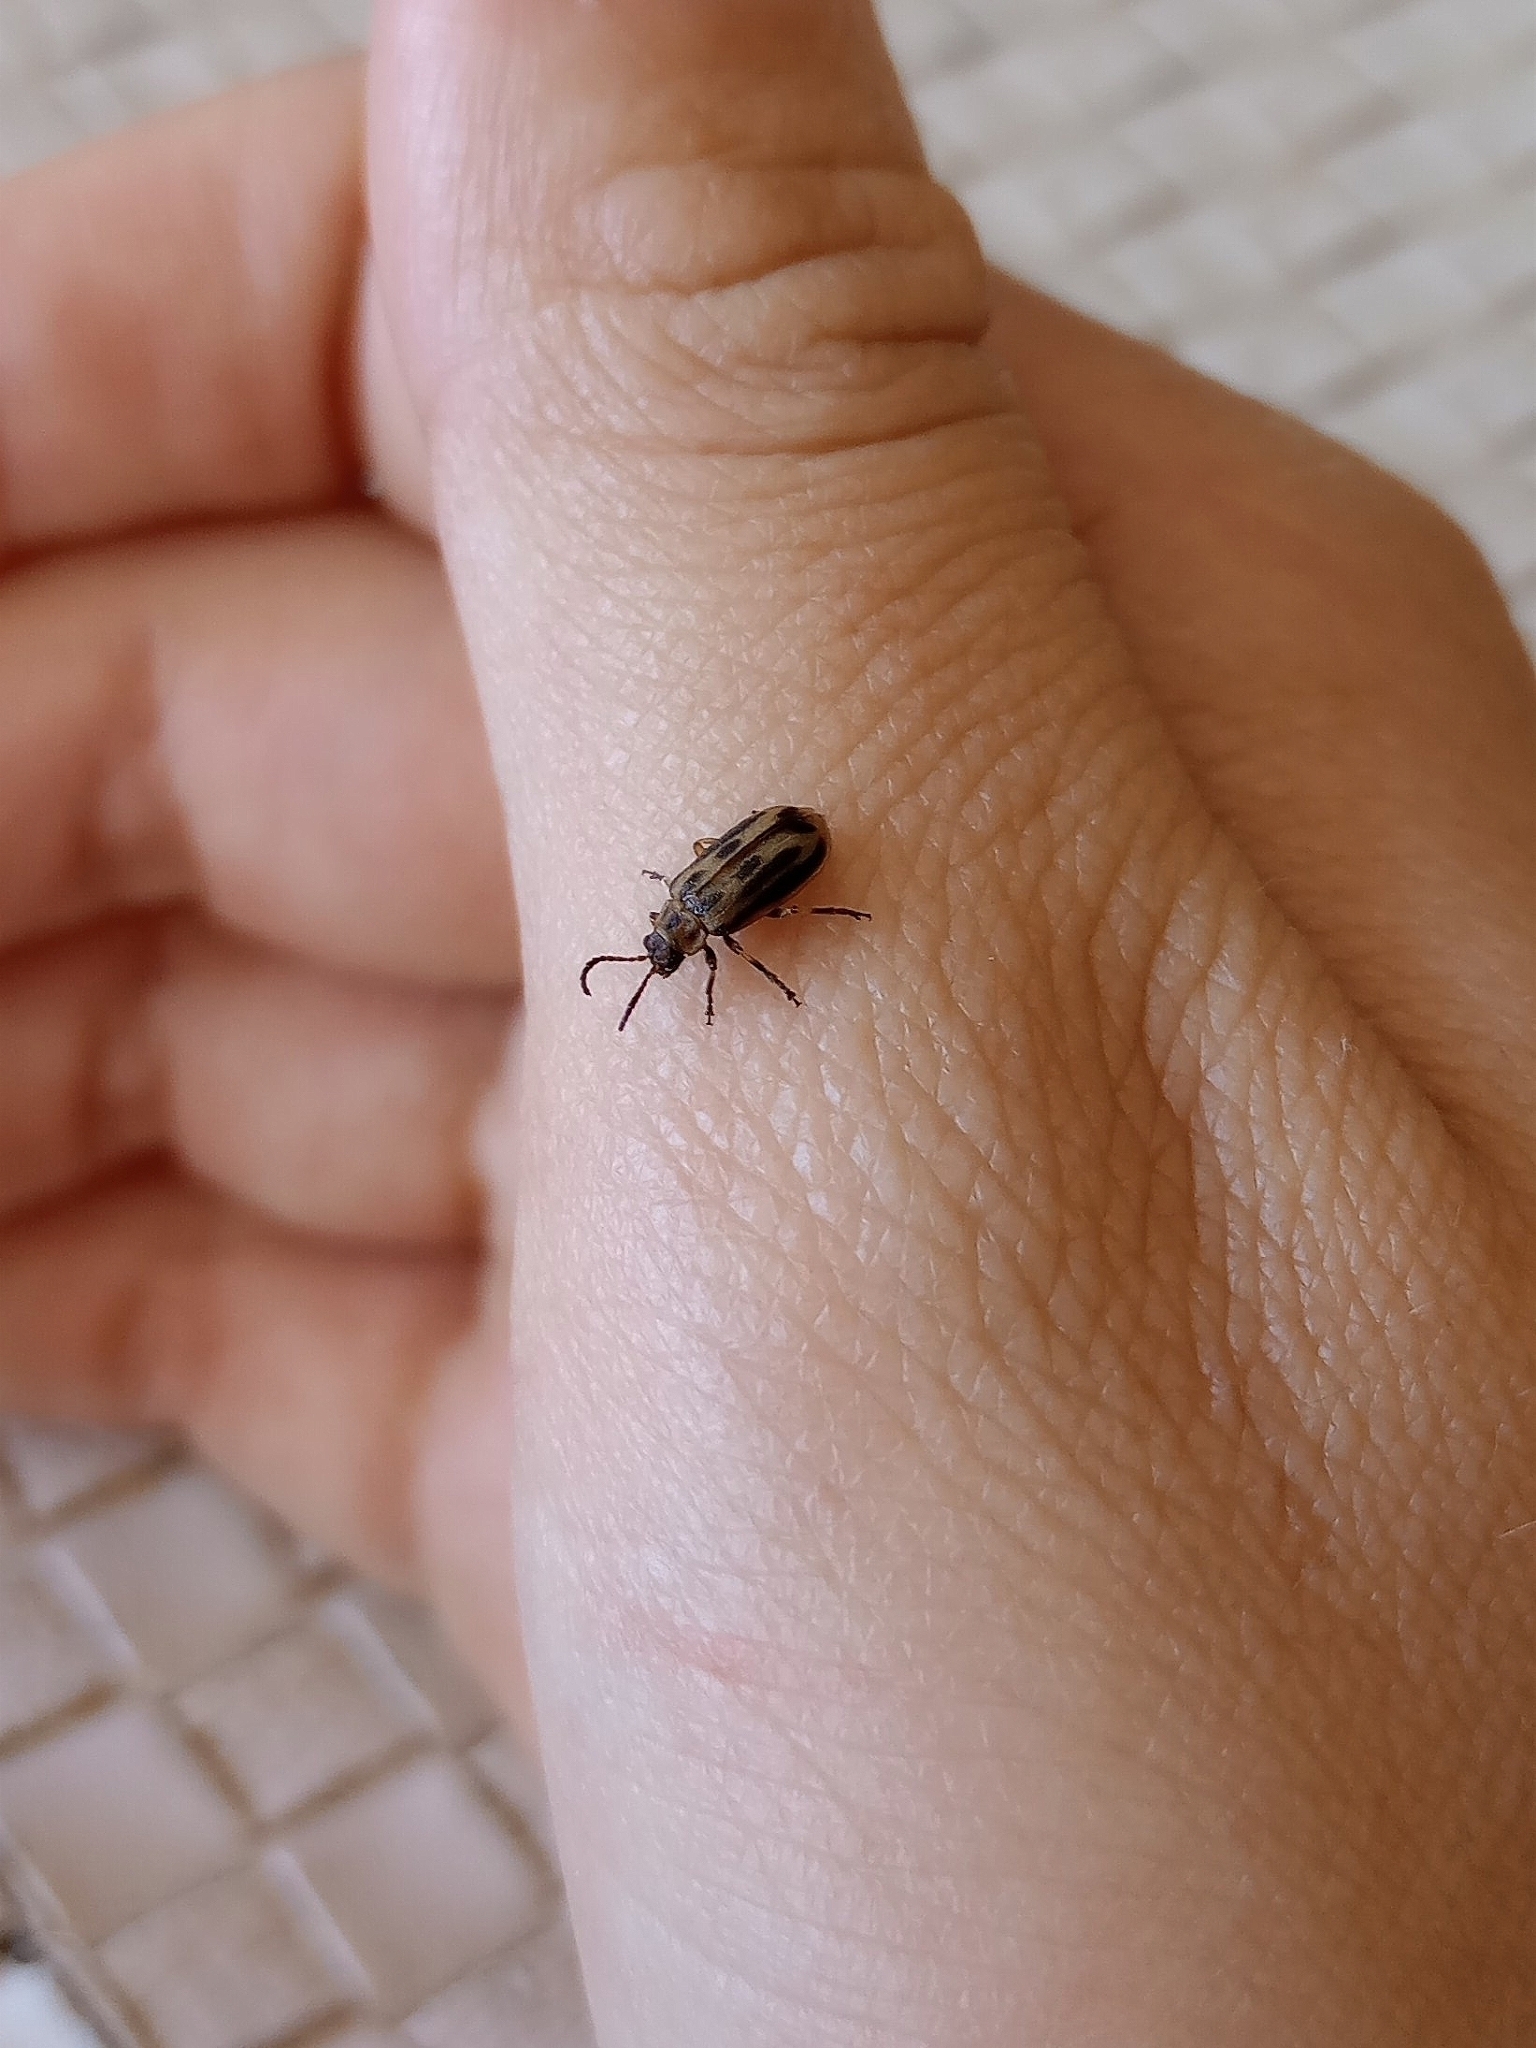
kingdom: Animalia
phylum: Arthropoda
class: Insecta
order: Coleoptera
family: Chrysomelidae
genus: Erynephala
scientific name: Erynephala
